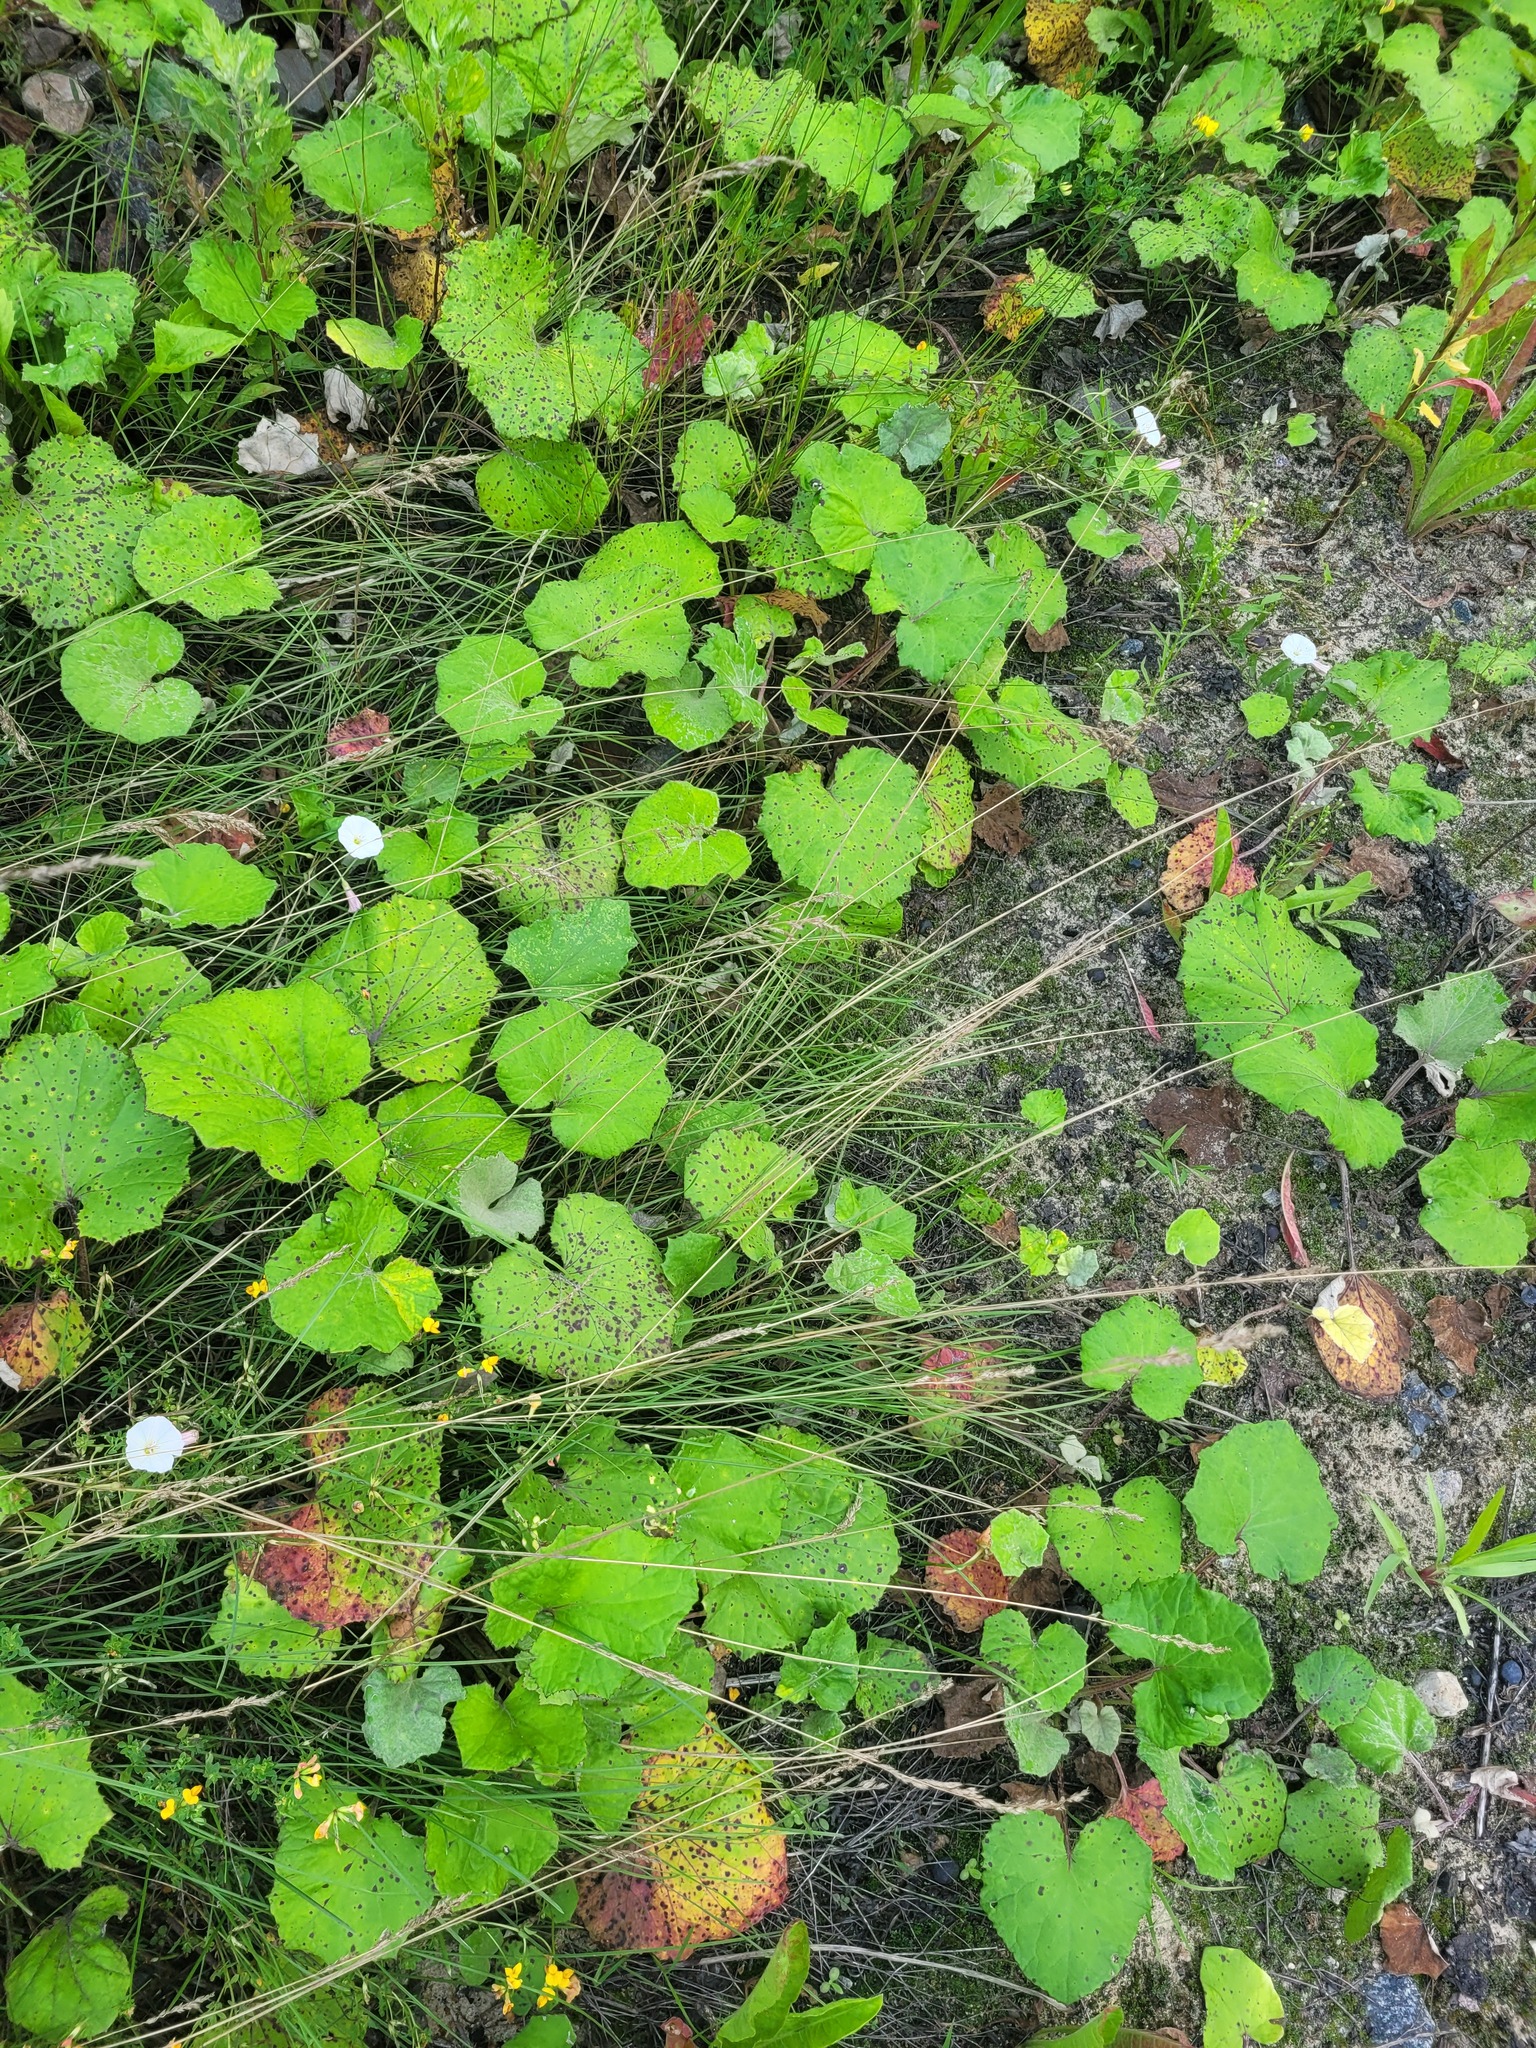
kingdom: Plantae
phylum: Tracheophyta
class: Liliopsida
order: Poales
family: Poaceae
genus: Poa
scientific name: Poa angustifolia
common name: Narrow-leaved meadow-grass
